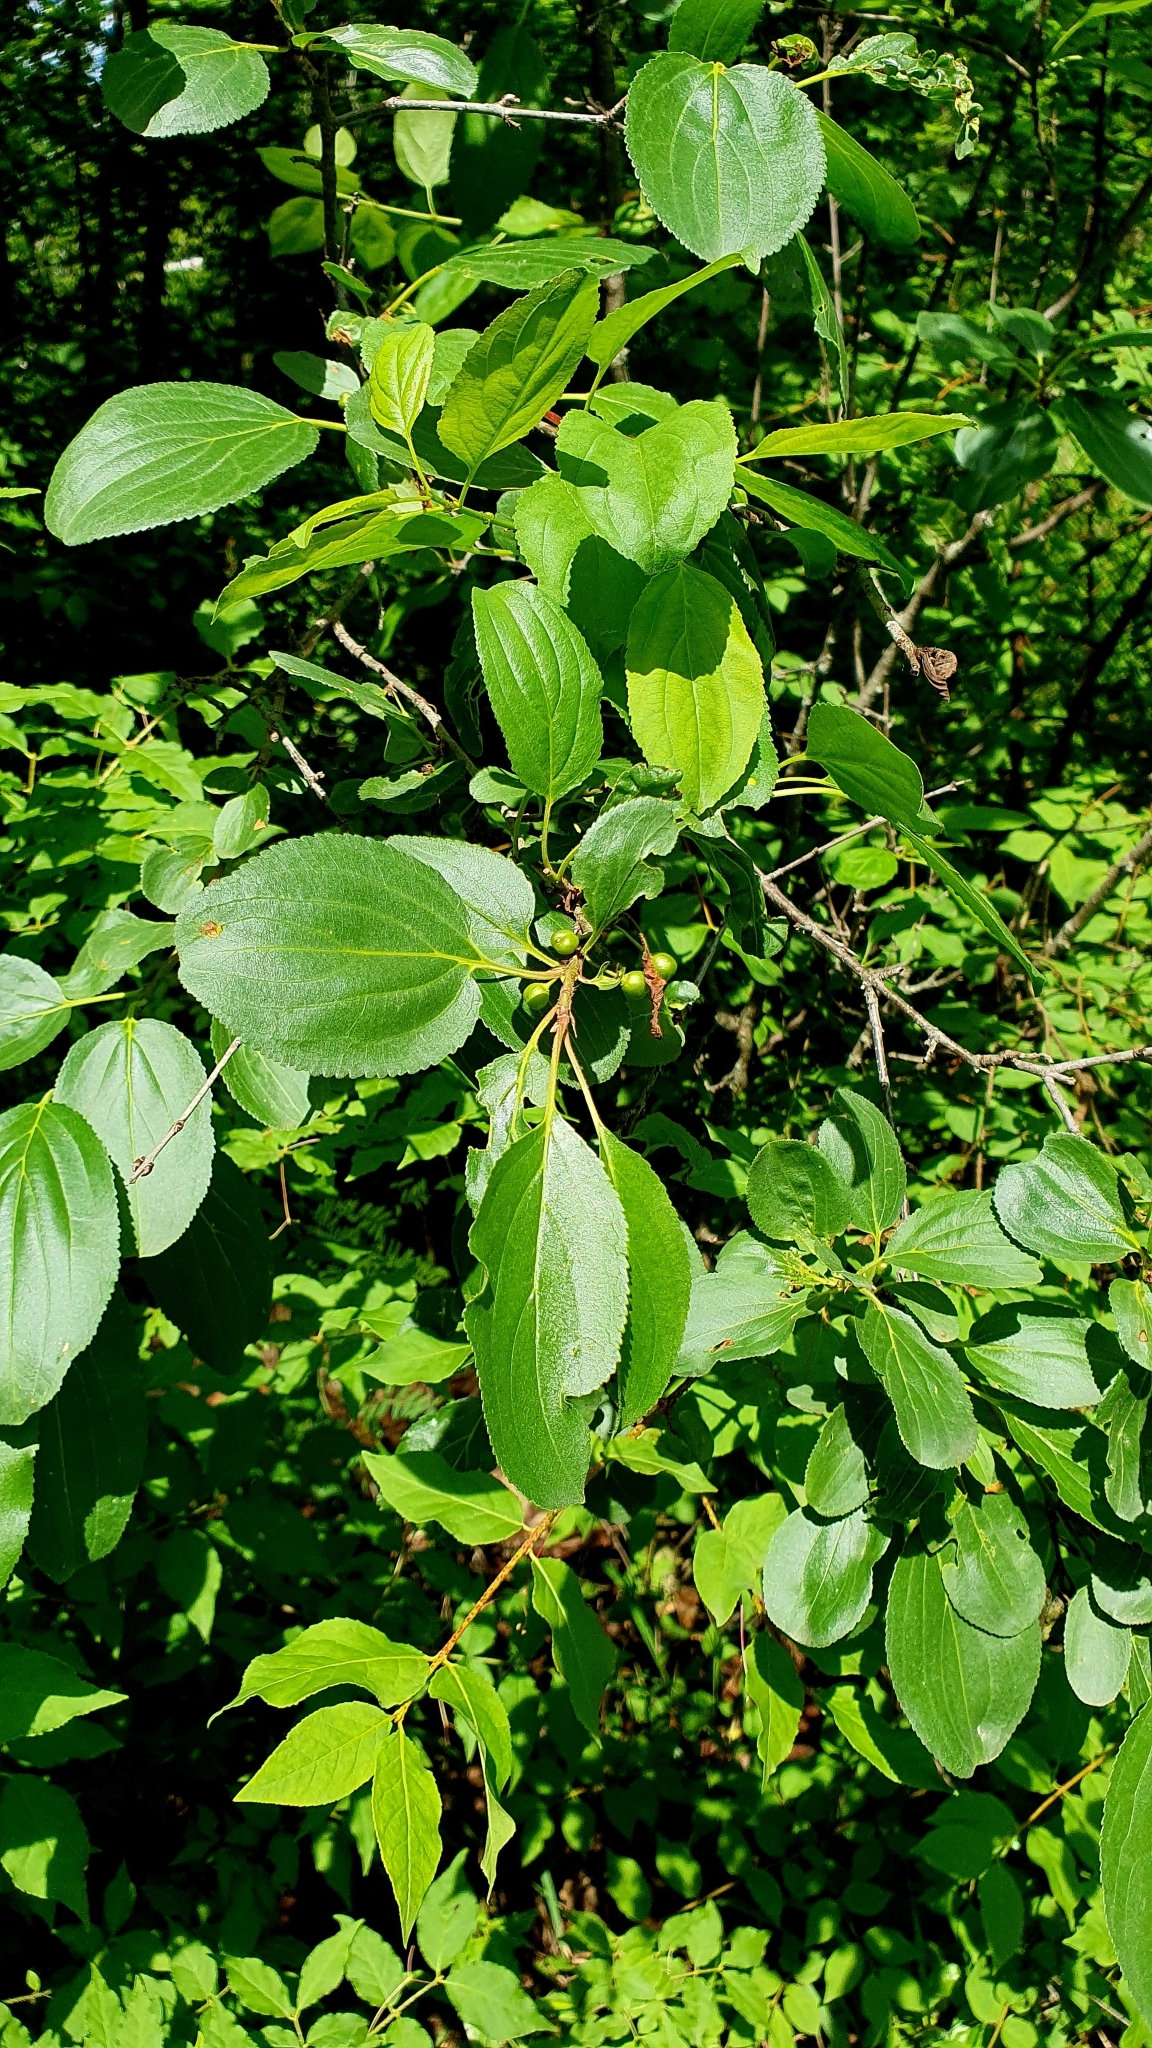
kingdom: Plantae
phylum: Tracheophyta
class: Magnoliopsida
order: Rosales
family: Rhamnaceae
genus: Rhamnus
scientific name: Rhamnus cathartica
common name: Common buckthorn
